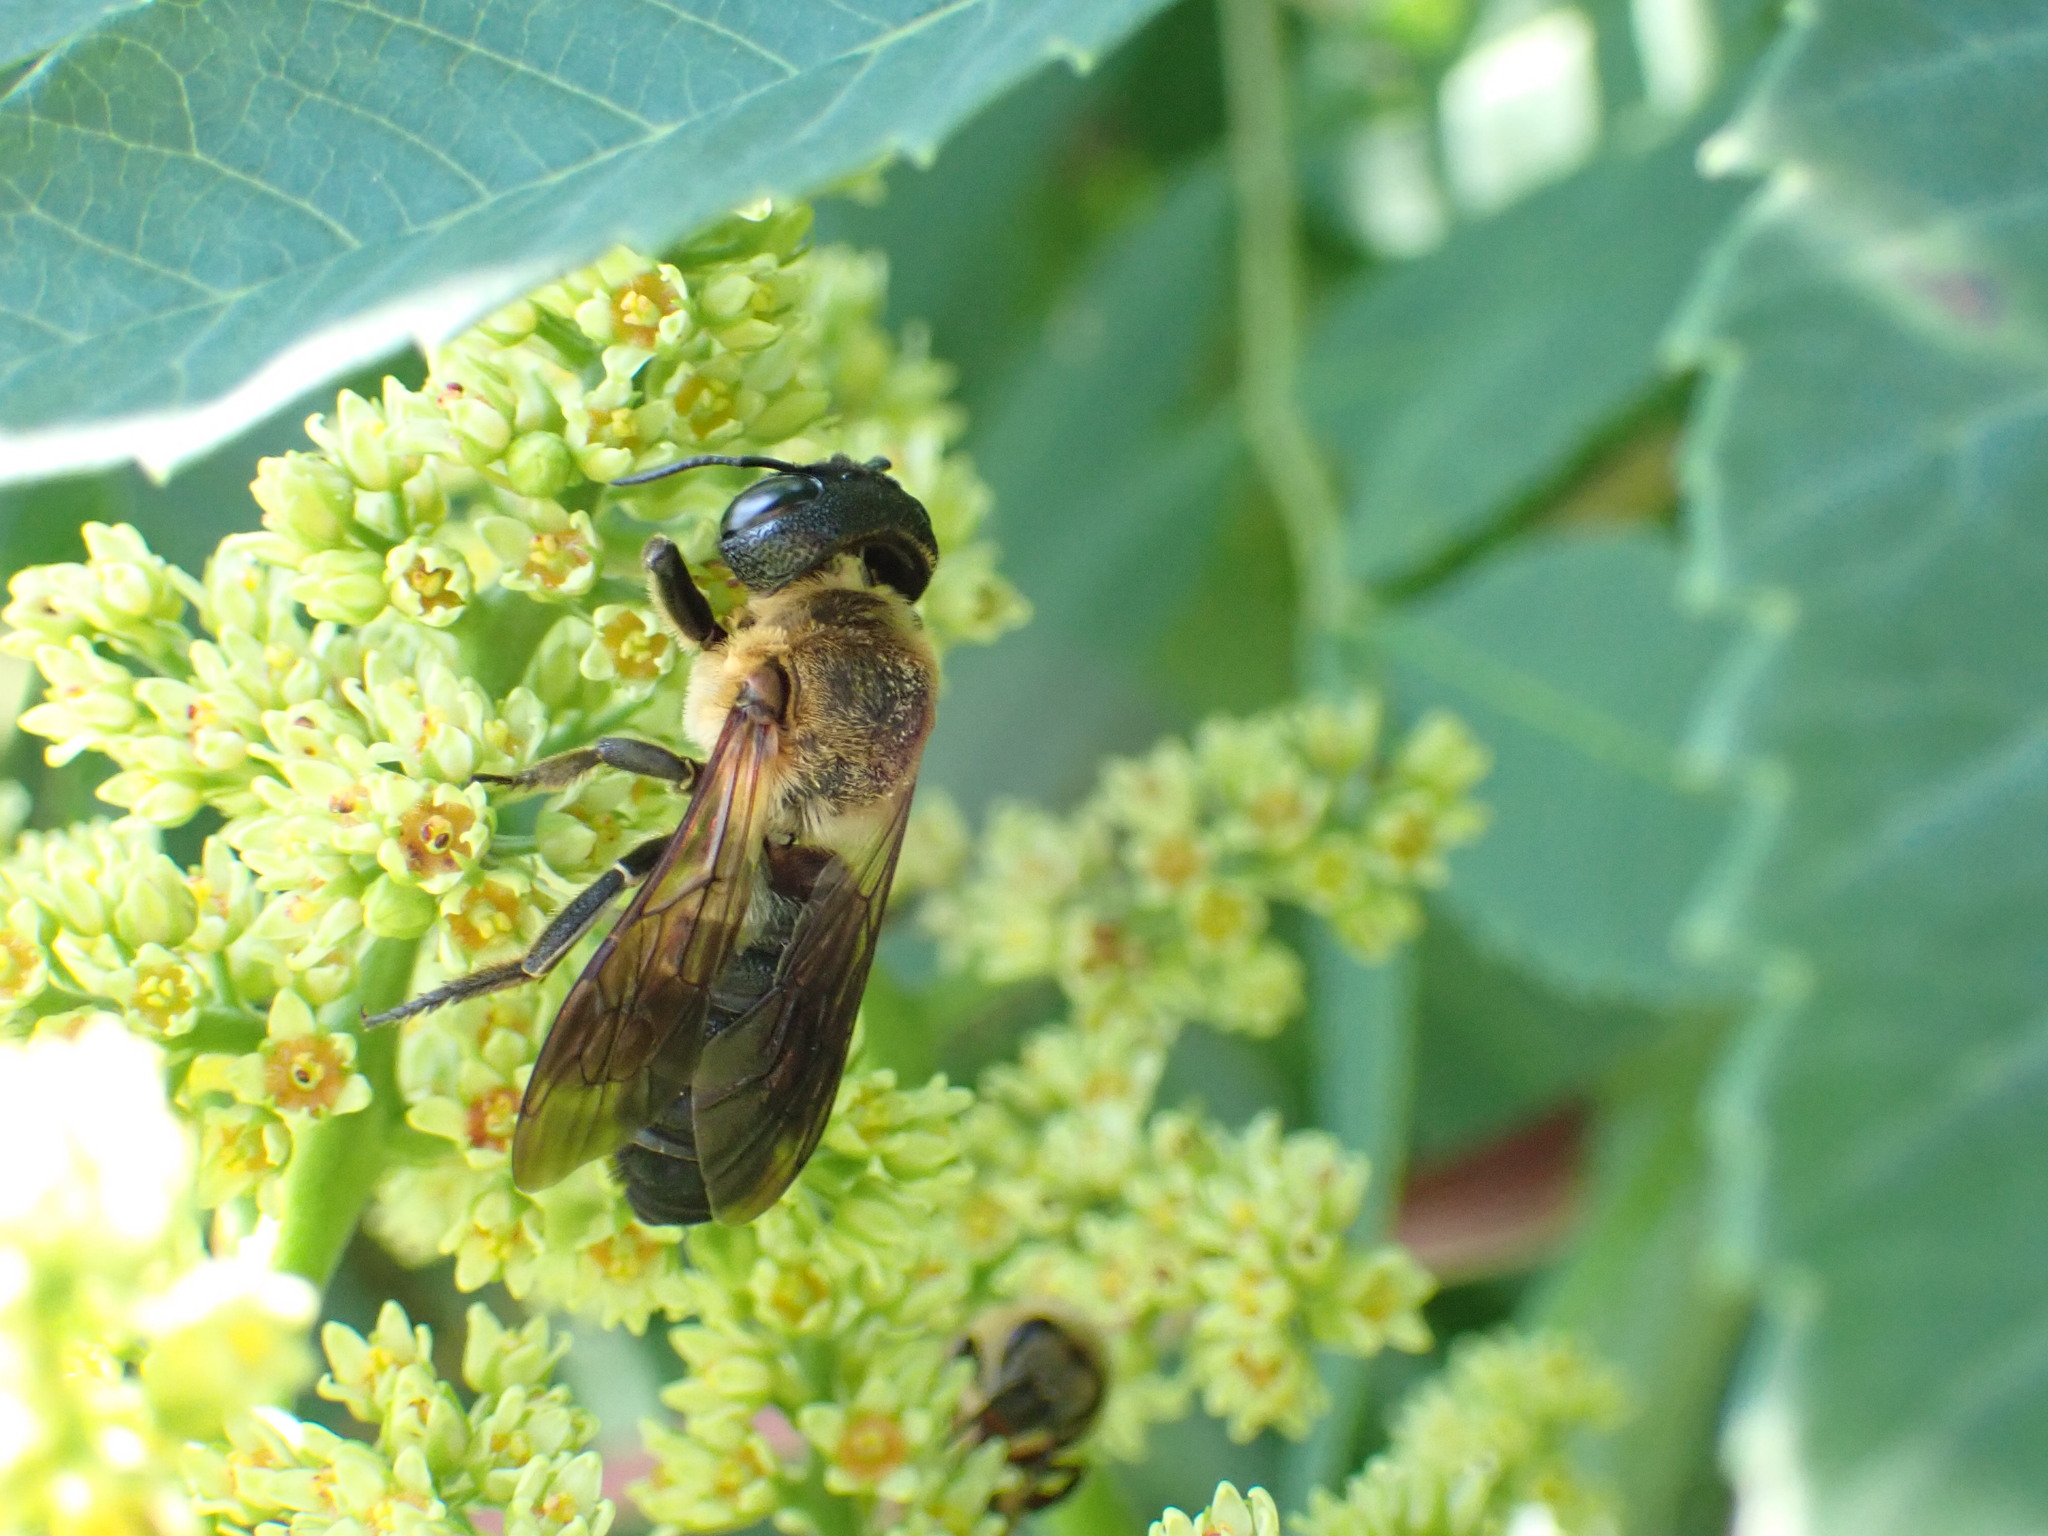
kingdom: Animalia
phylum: Arthropoda
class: Insecta
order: Hymenoptera
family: Megachilidae
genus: Megachile
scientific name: Megachile sculpturalis
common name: Sculptured resin bee
